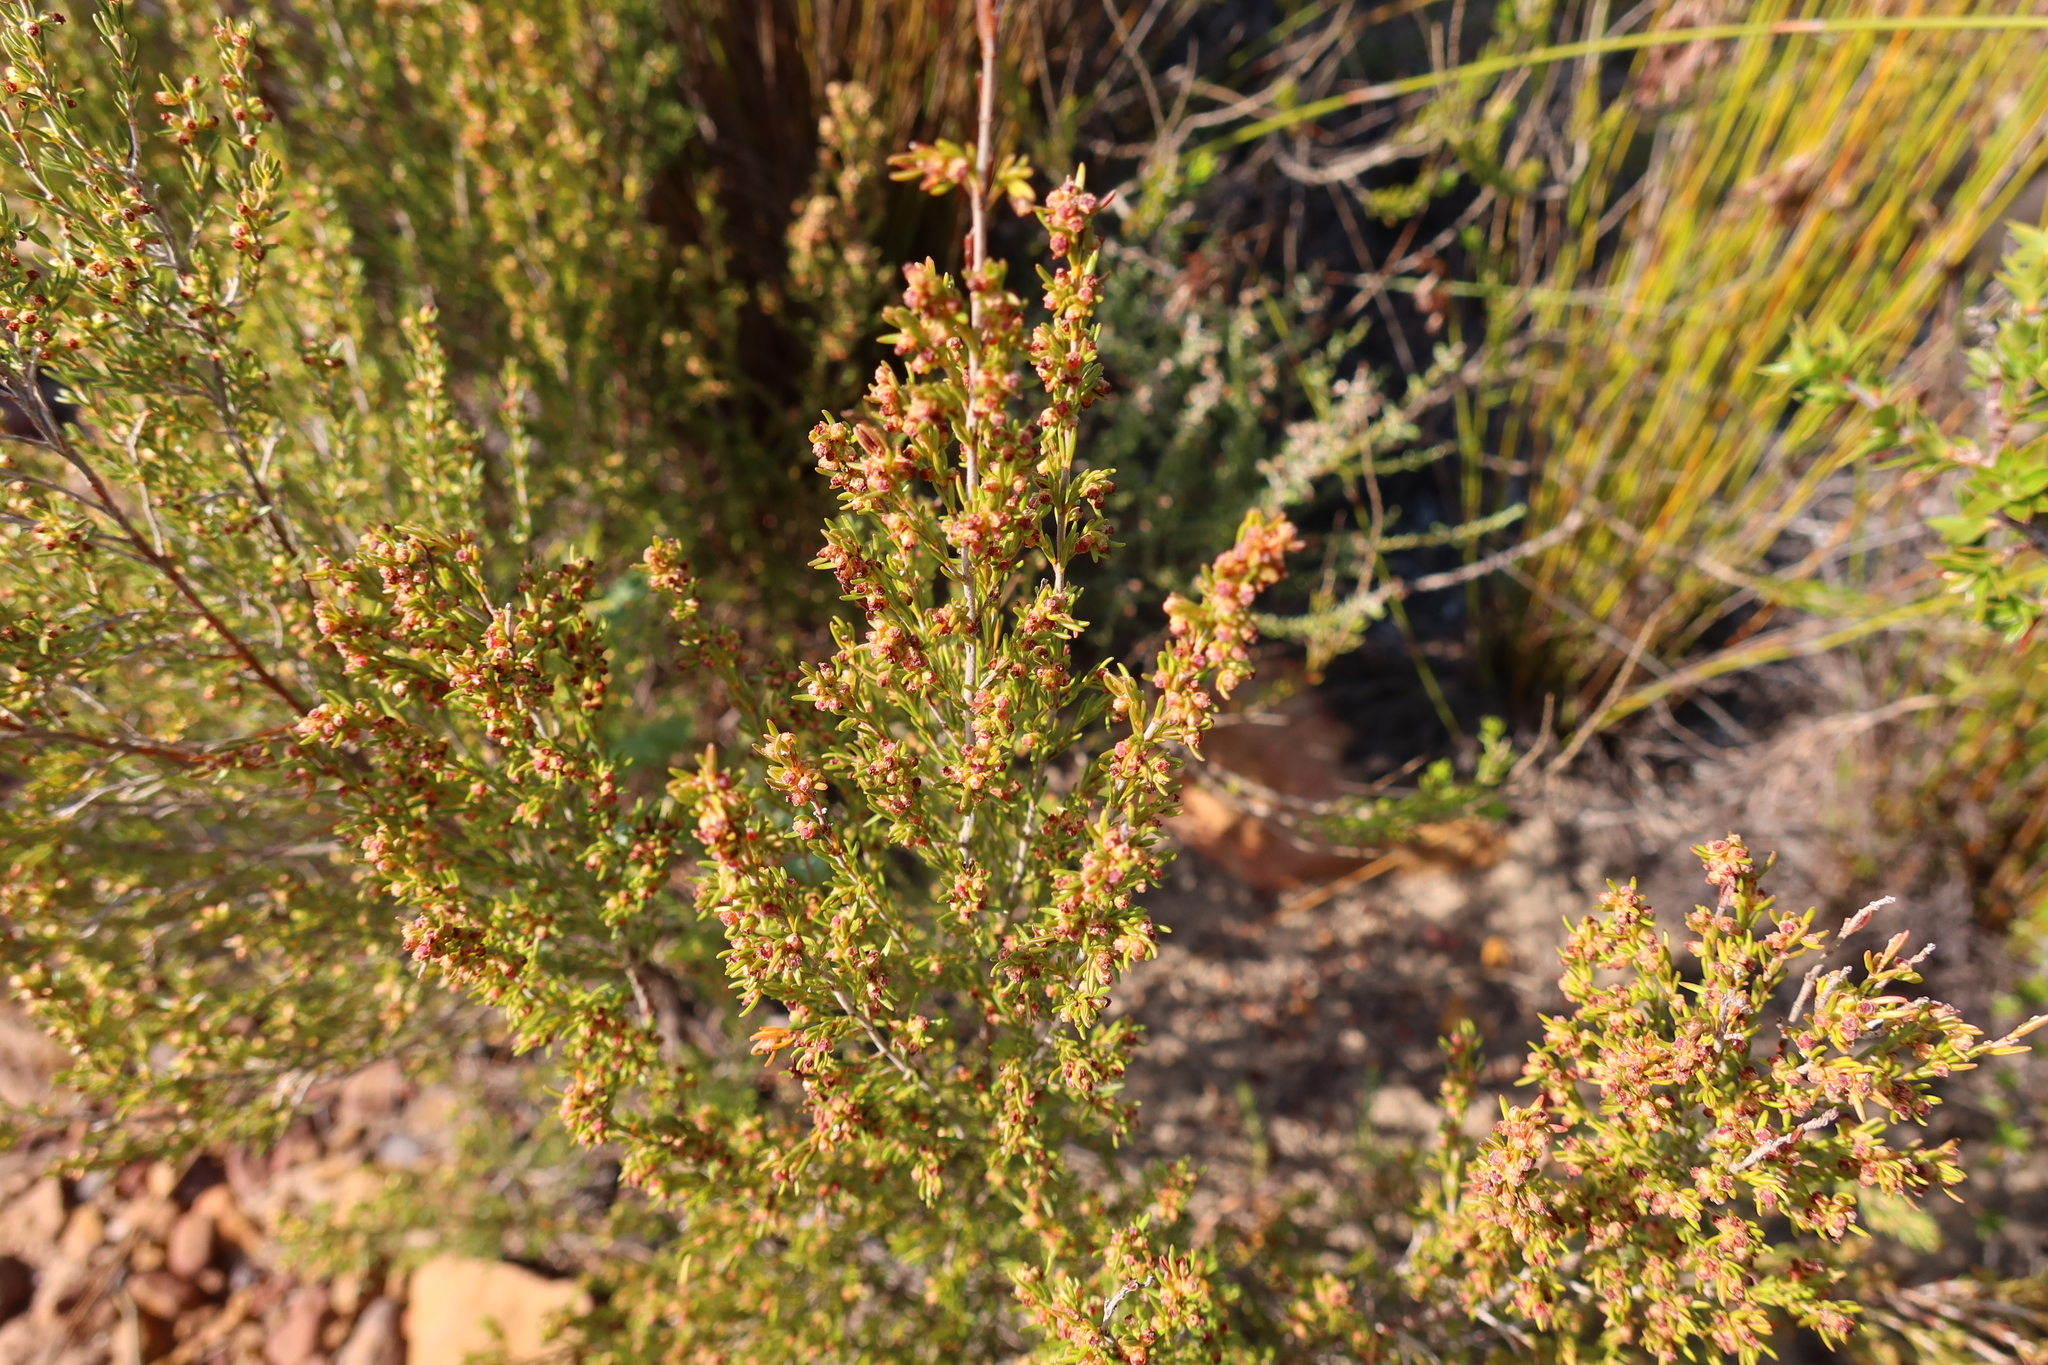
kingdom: Plantae
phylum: Tracheophyta
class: Magnoliopsida
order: Ericales
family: Ericaceae
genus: Erica
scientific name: Erica axillaris
